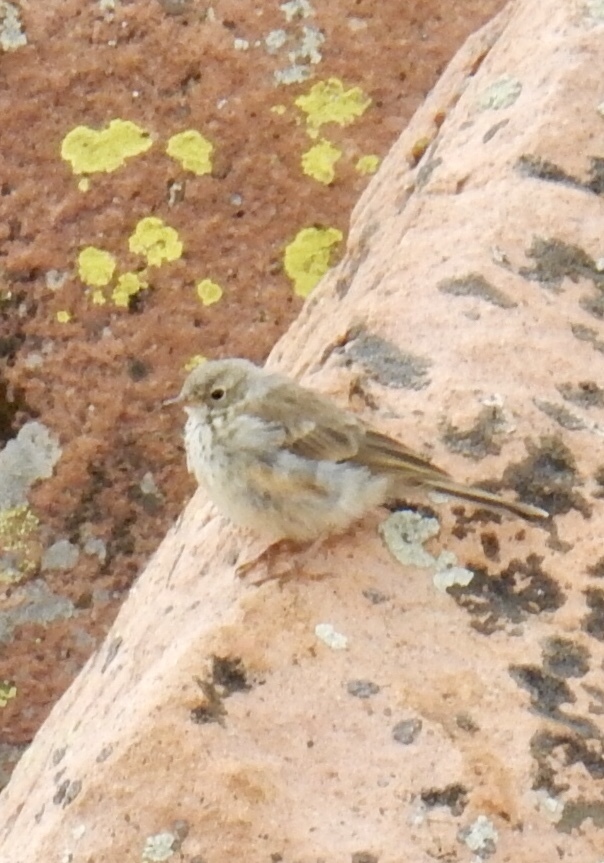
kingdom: Animalia
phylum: Chordata
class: Aves
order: Passeriformes
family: Motacillidae
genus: Anthus
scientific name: Anthus rubescens
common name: Buff-bellied pipit
